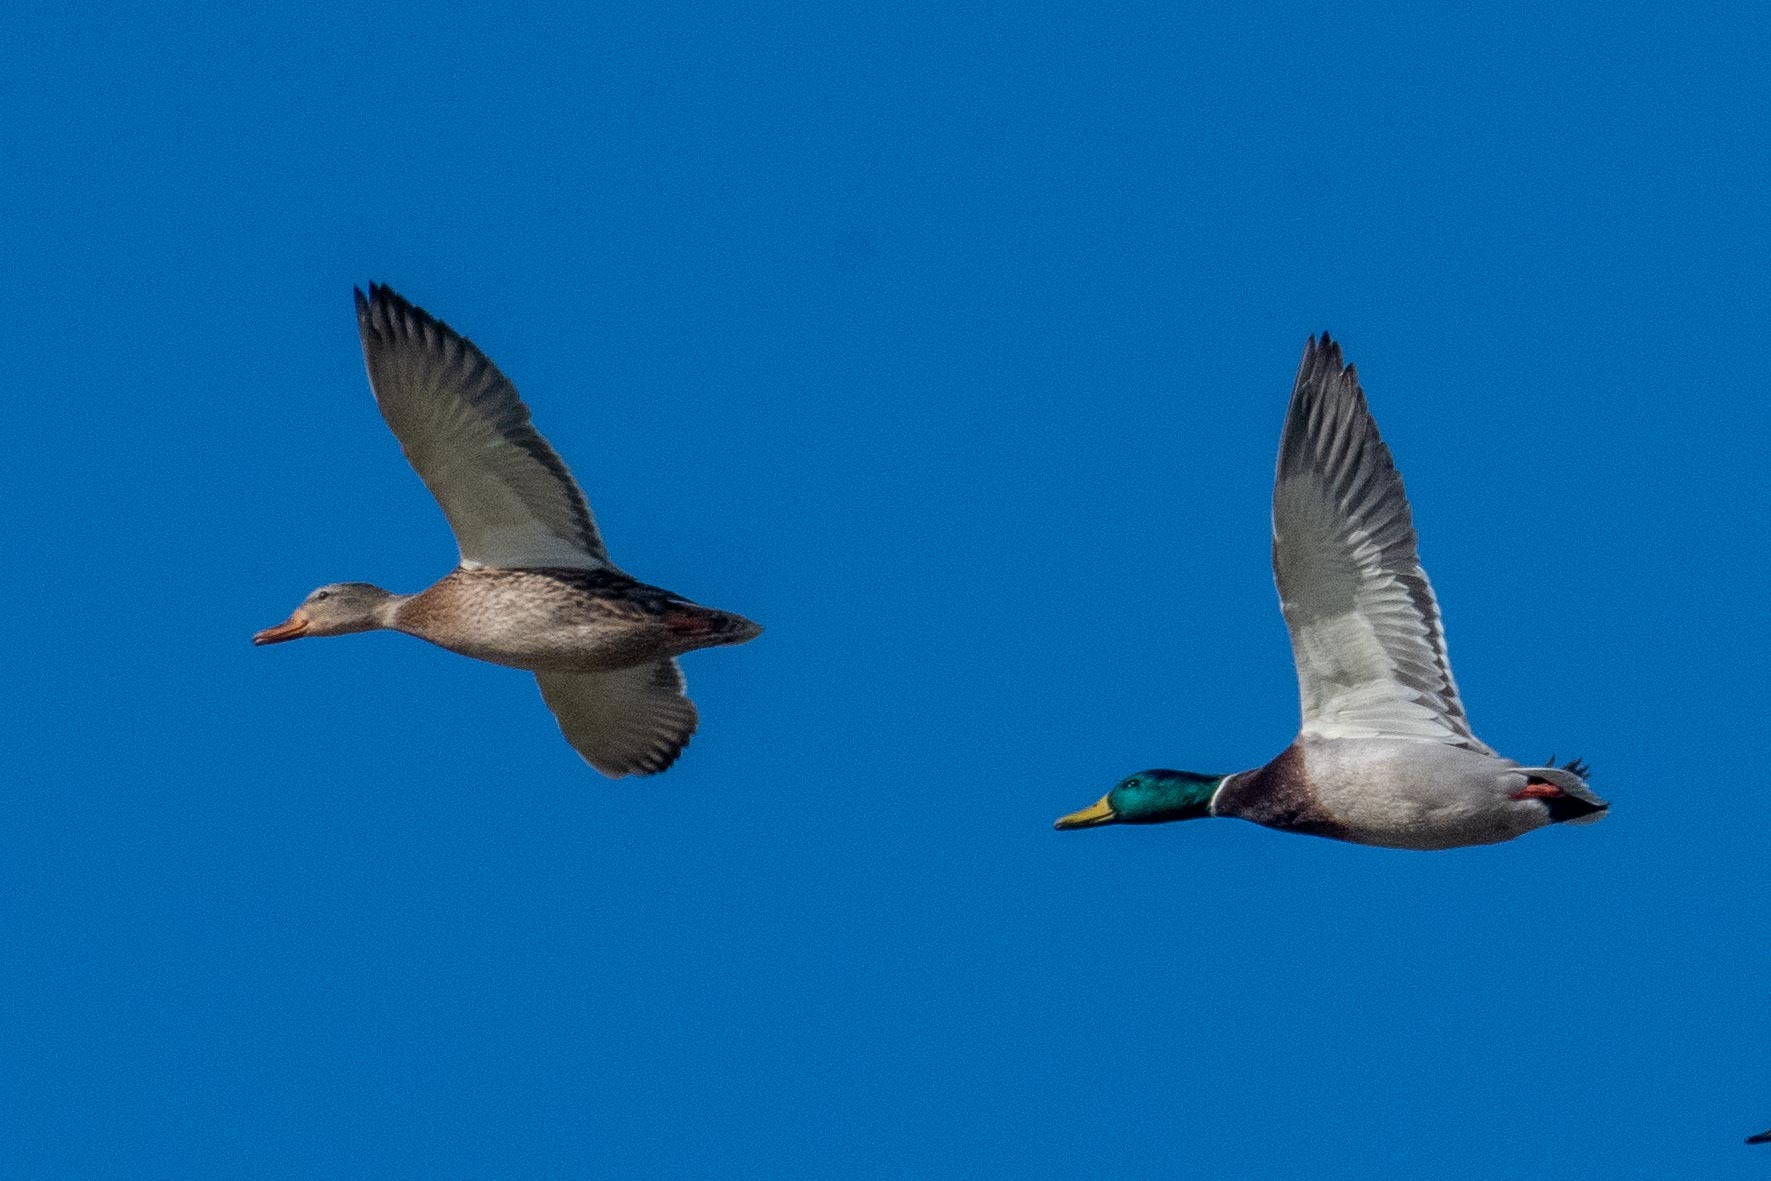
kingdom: Animalia
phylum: Chordata
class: Aves
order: Anseriformes
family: Anatidae
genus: Anas
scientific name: Anas platyrhynchos
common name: Mallard
